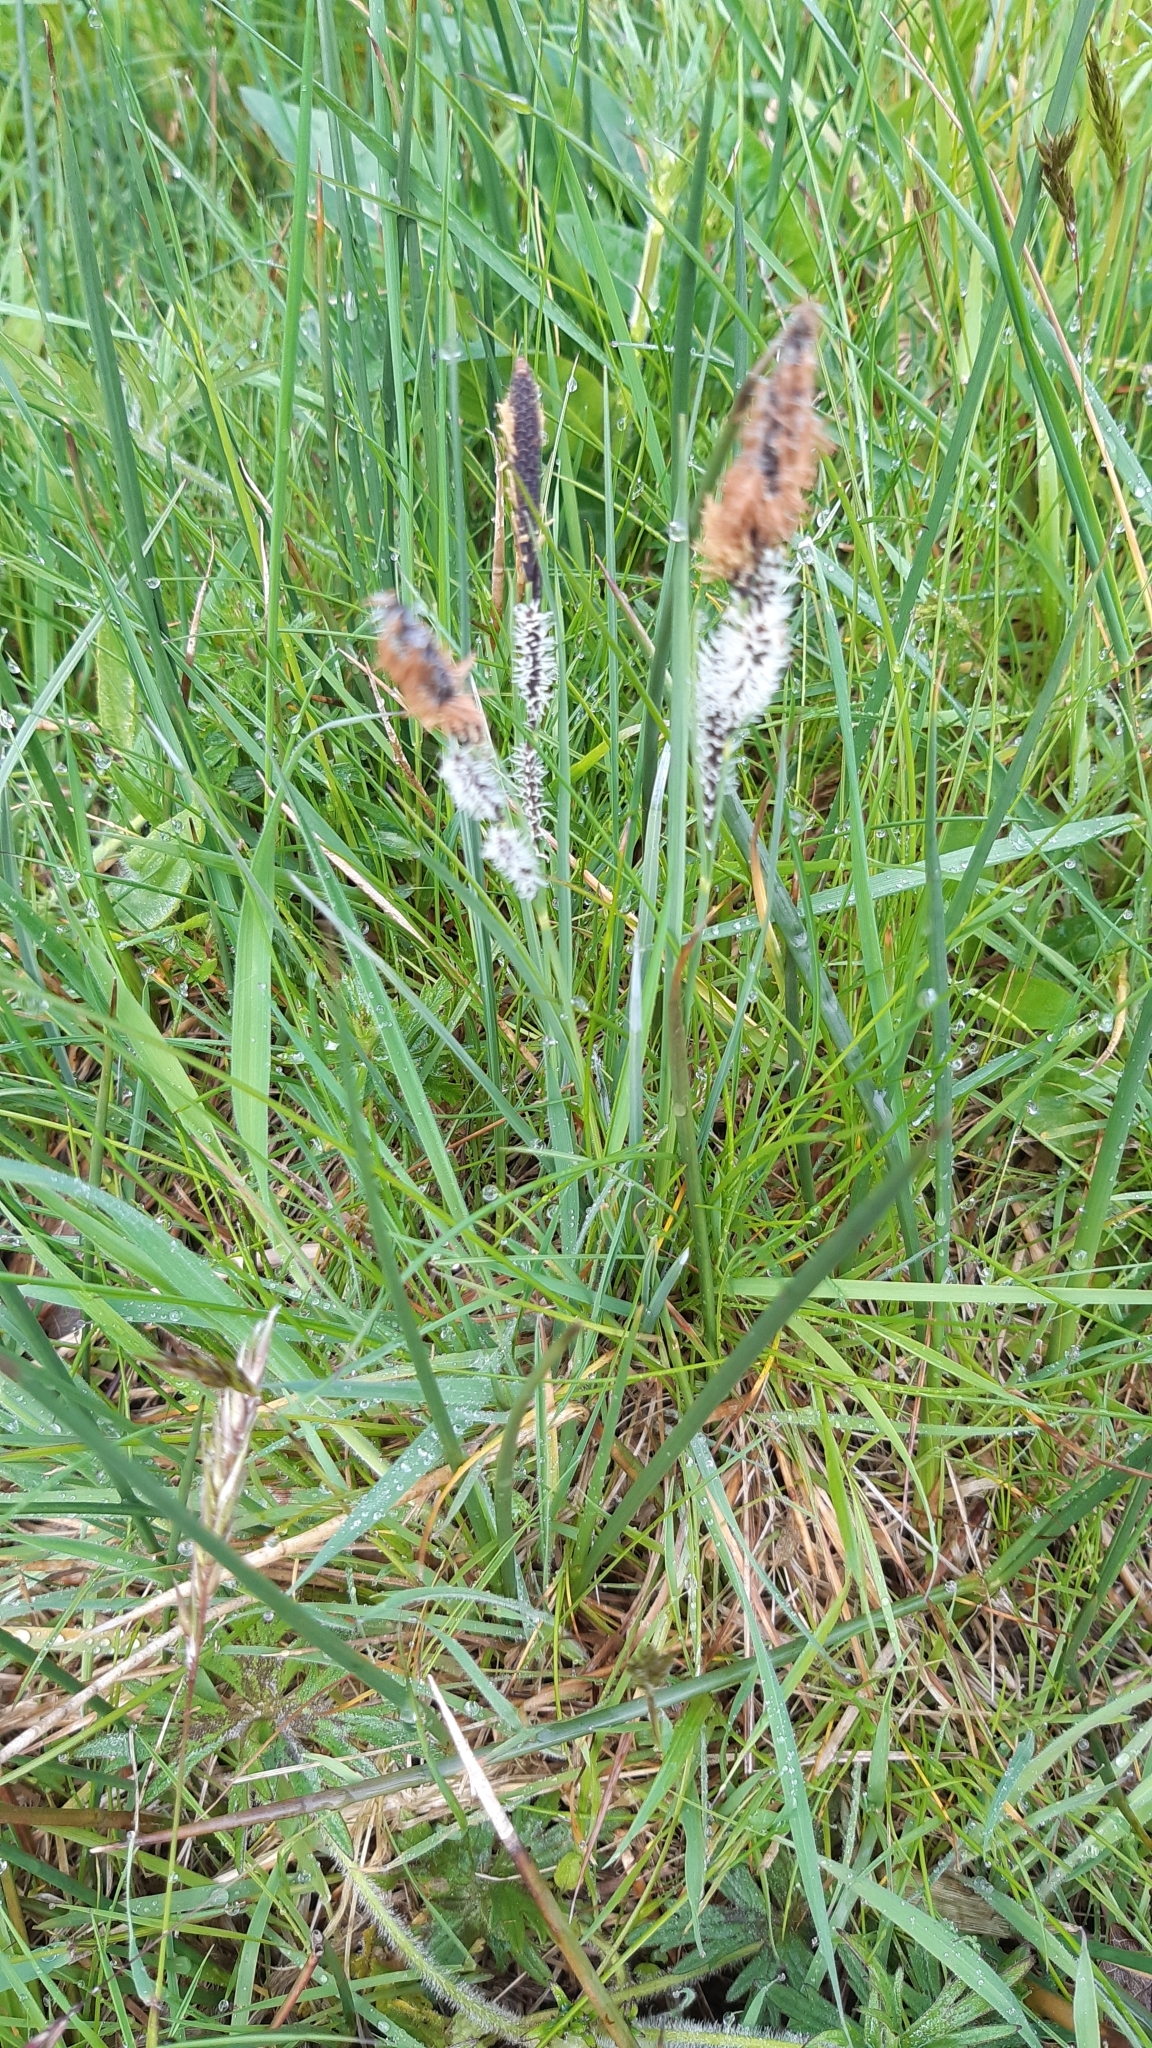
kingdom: Plantae
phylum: Tracheophyta
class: Liliopsida
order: Poales
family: Cyperaceae
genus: Carex
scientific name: Carex nigra
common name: Common sedge
